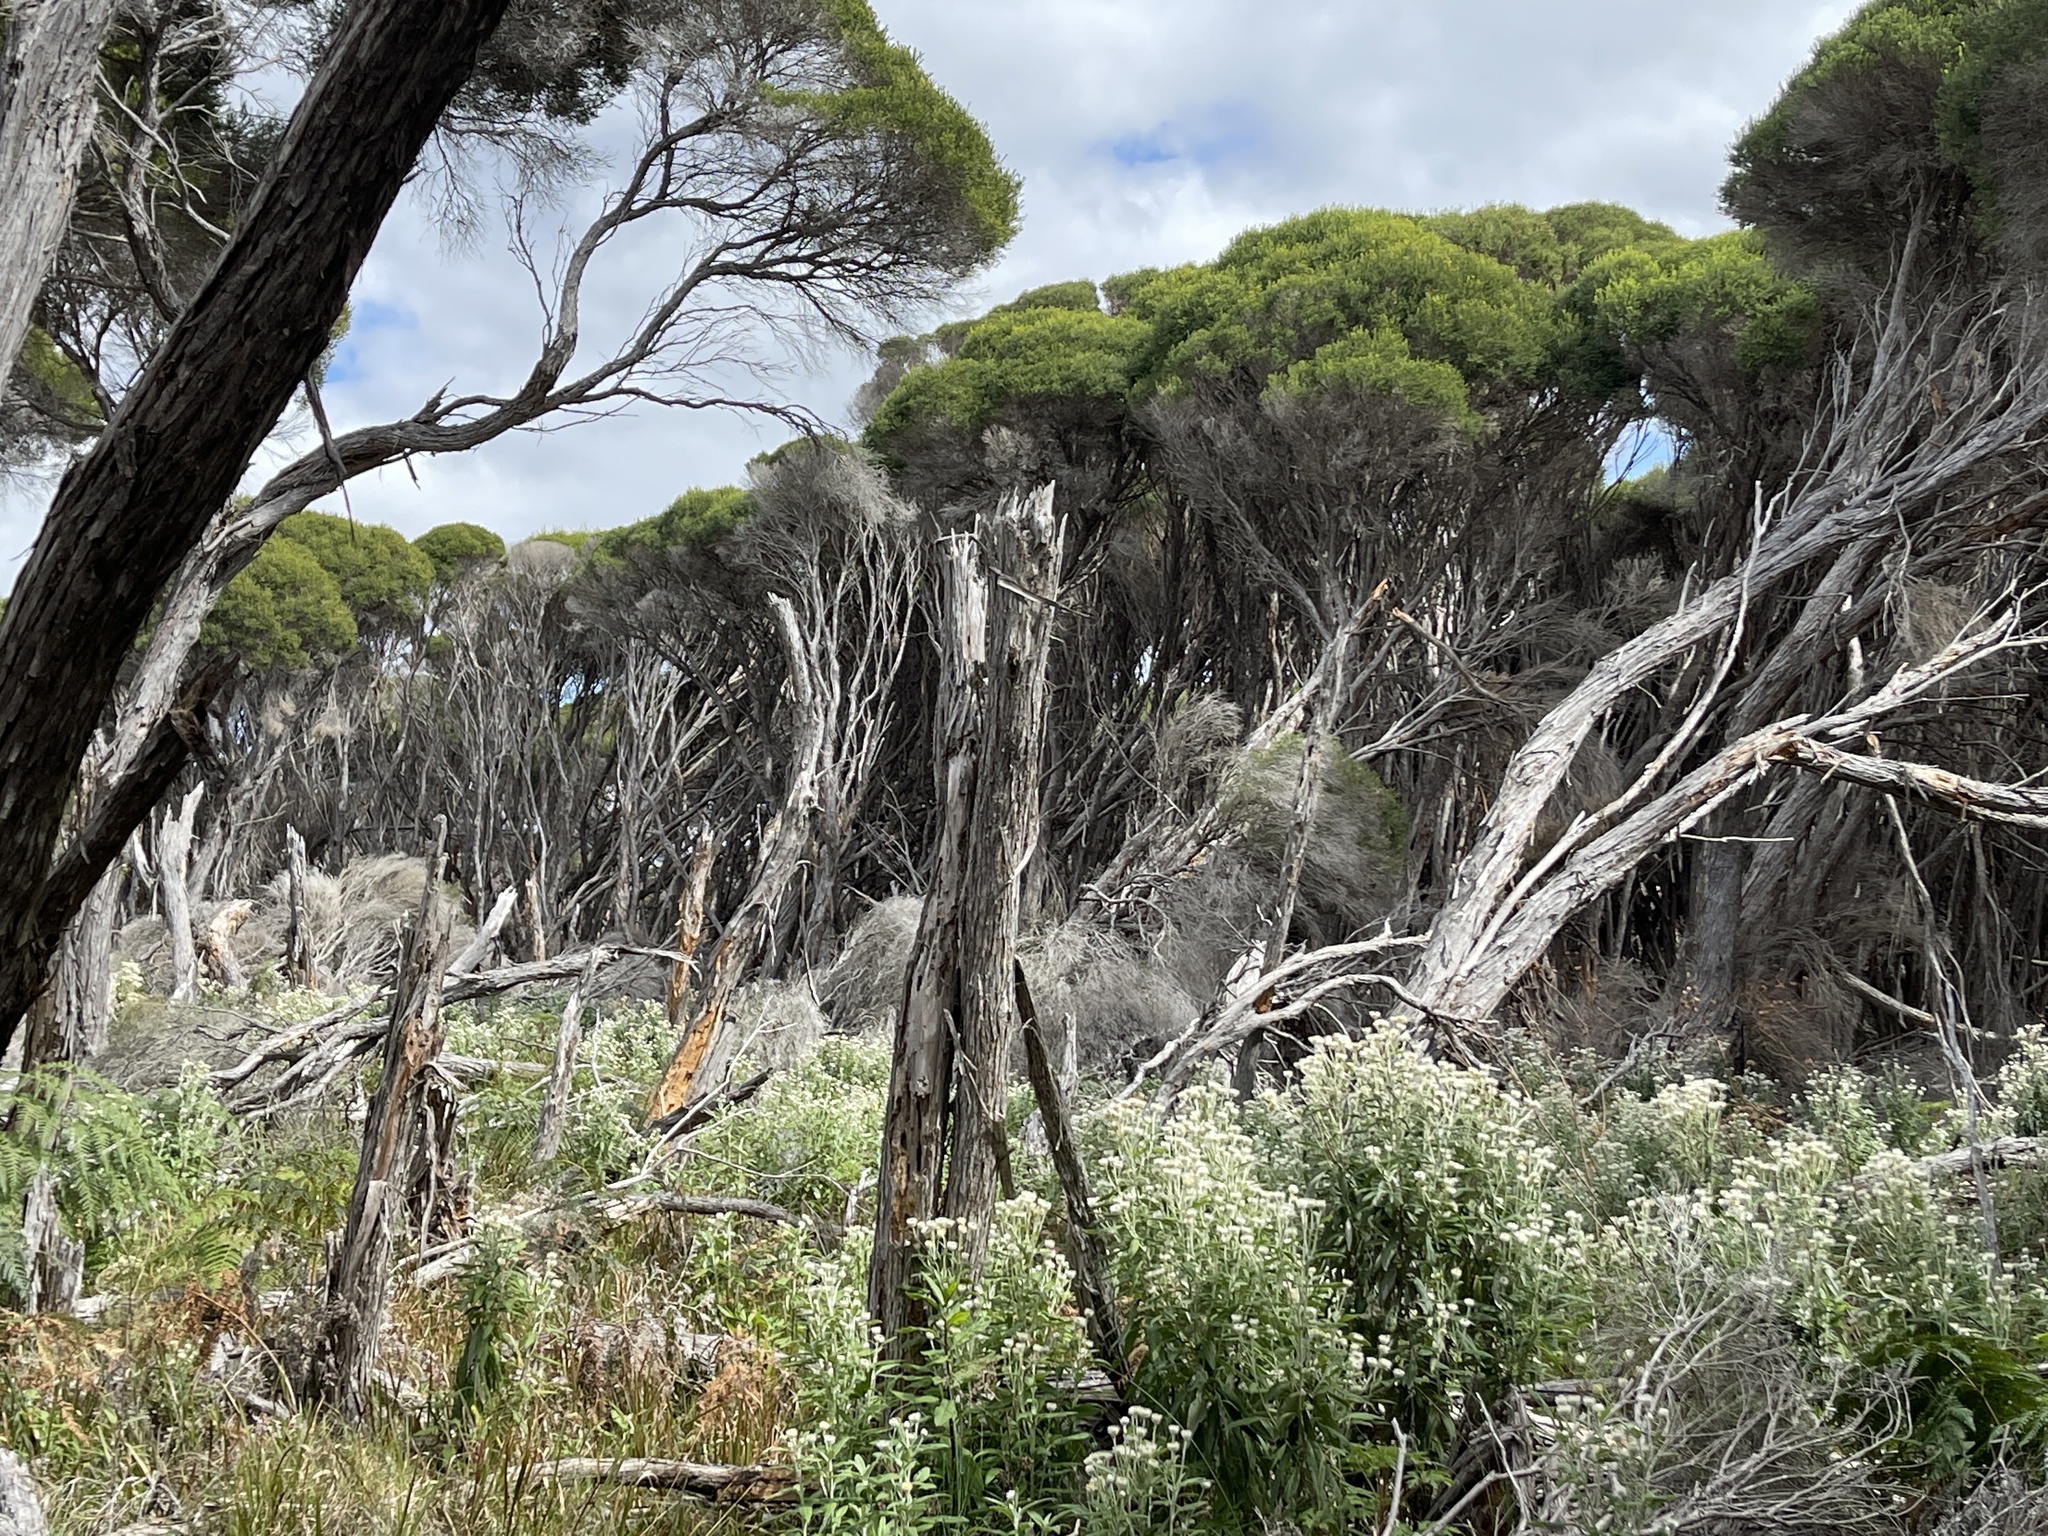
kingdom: Plantae
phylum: Tracheophyta
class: Magnoliopsida
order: Asterales
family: Asteraceae
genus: Leucozoma
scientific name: Leucozoma elatum
